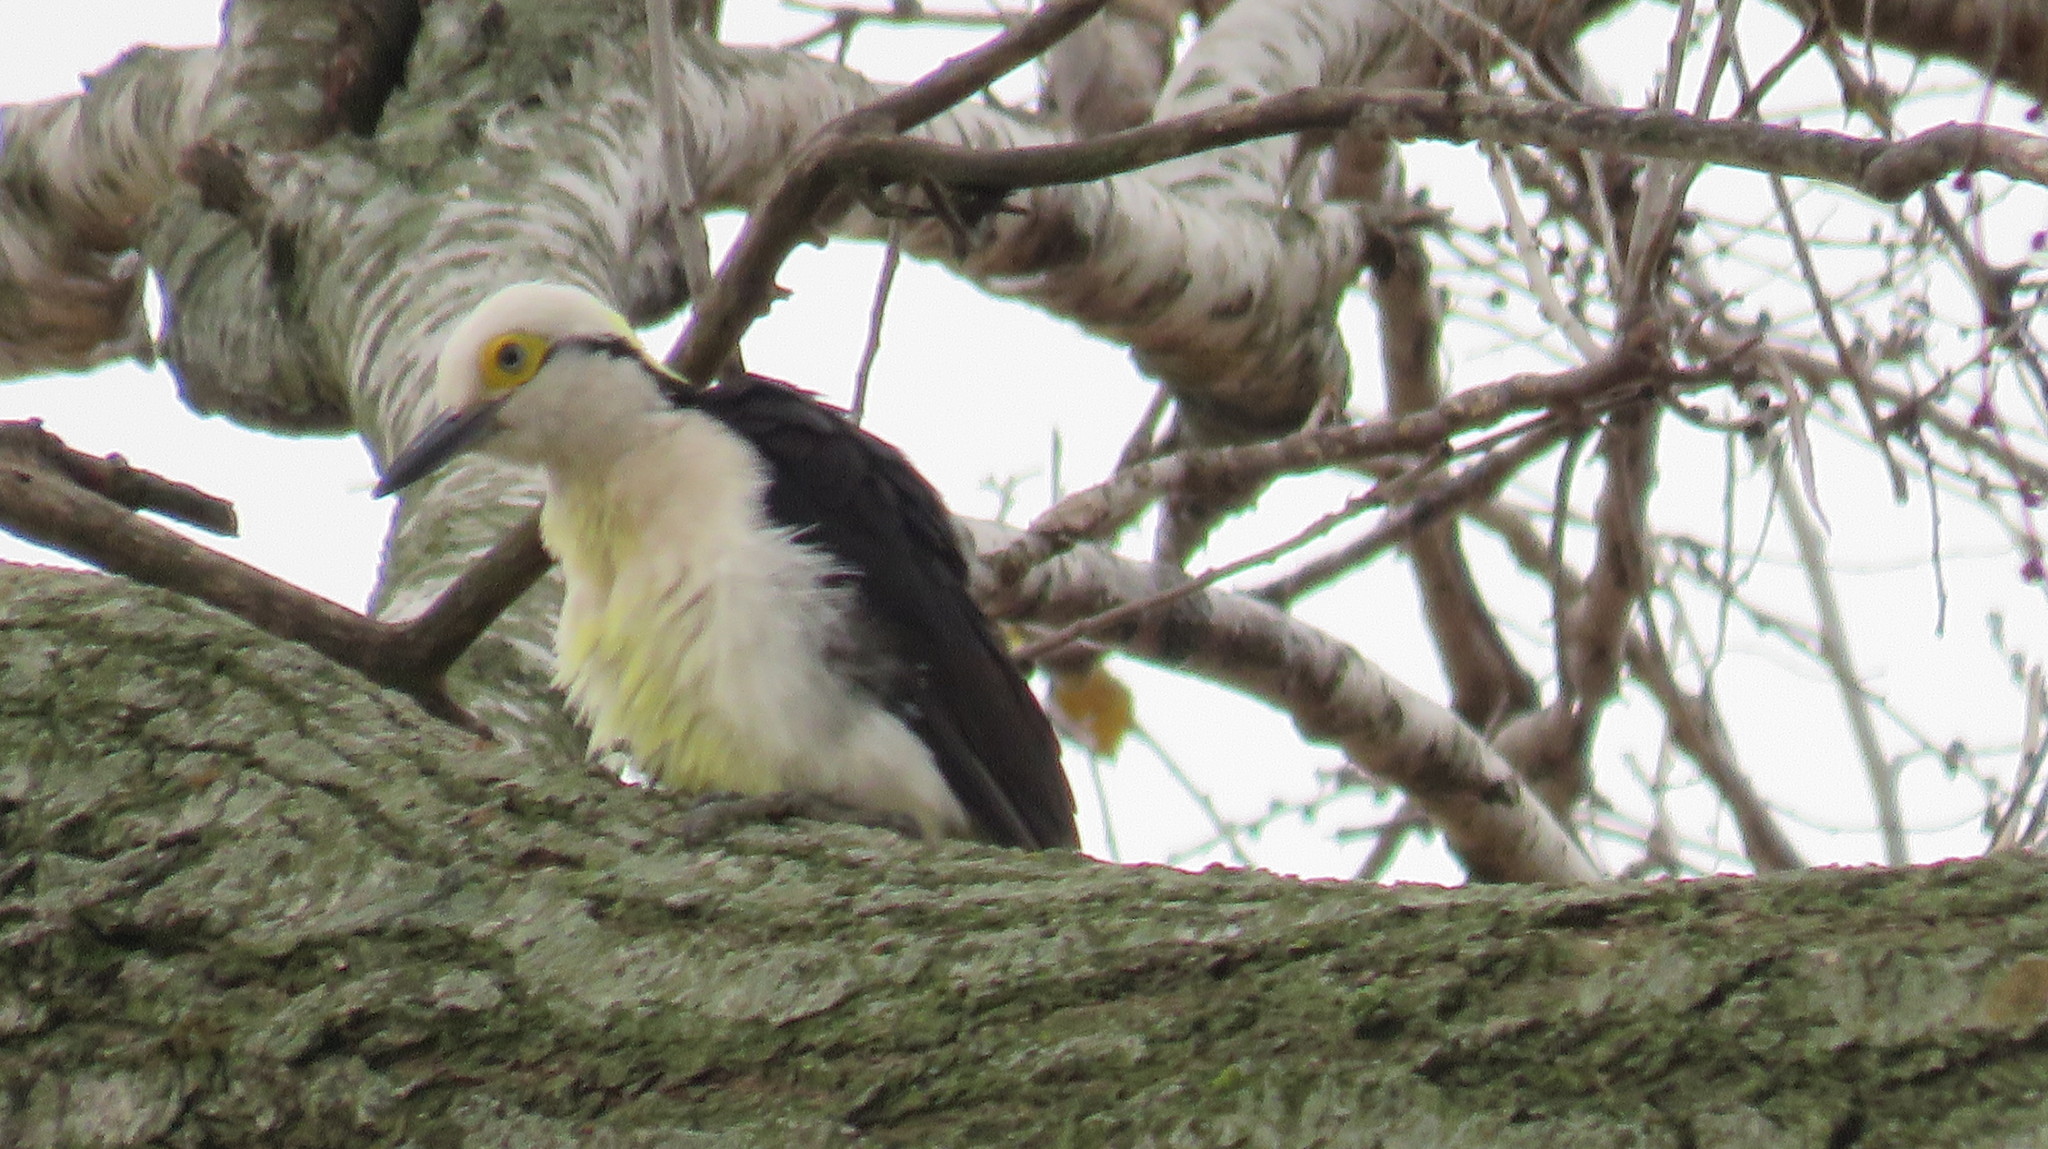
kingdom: Animalia
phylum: Chordata
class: Aves
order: Piciformes
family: Picidae
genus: Melanerpes
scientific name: Melanerpes candidus
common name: White woodpecker
